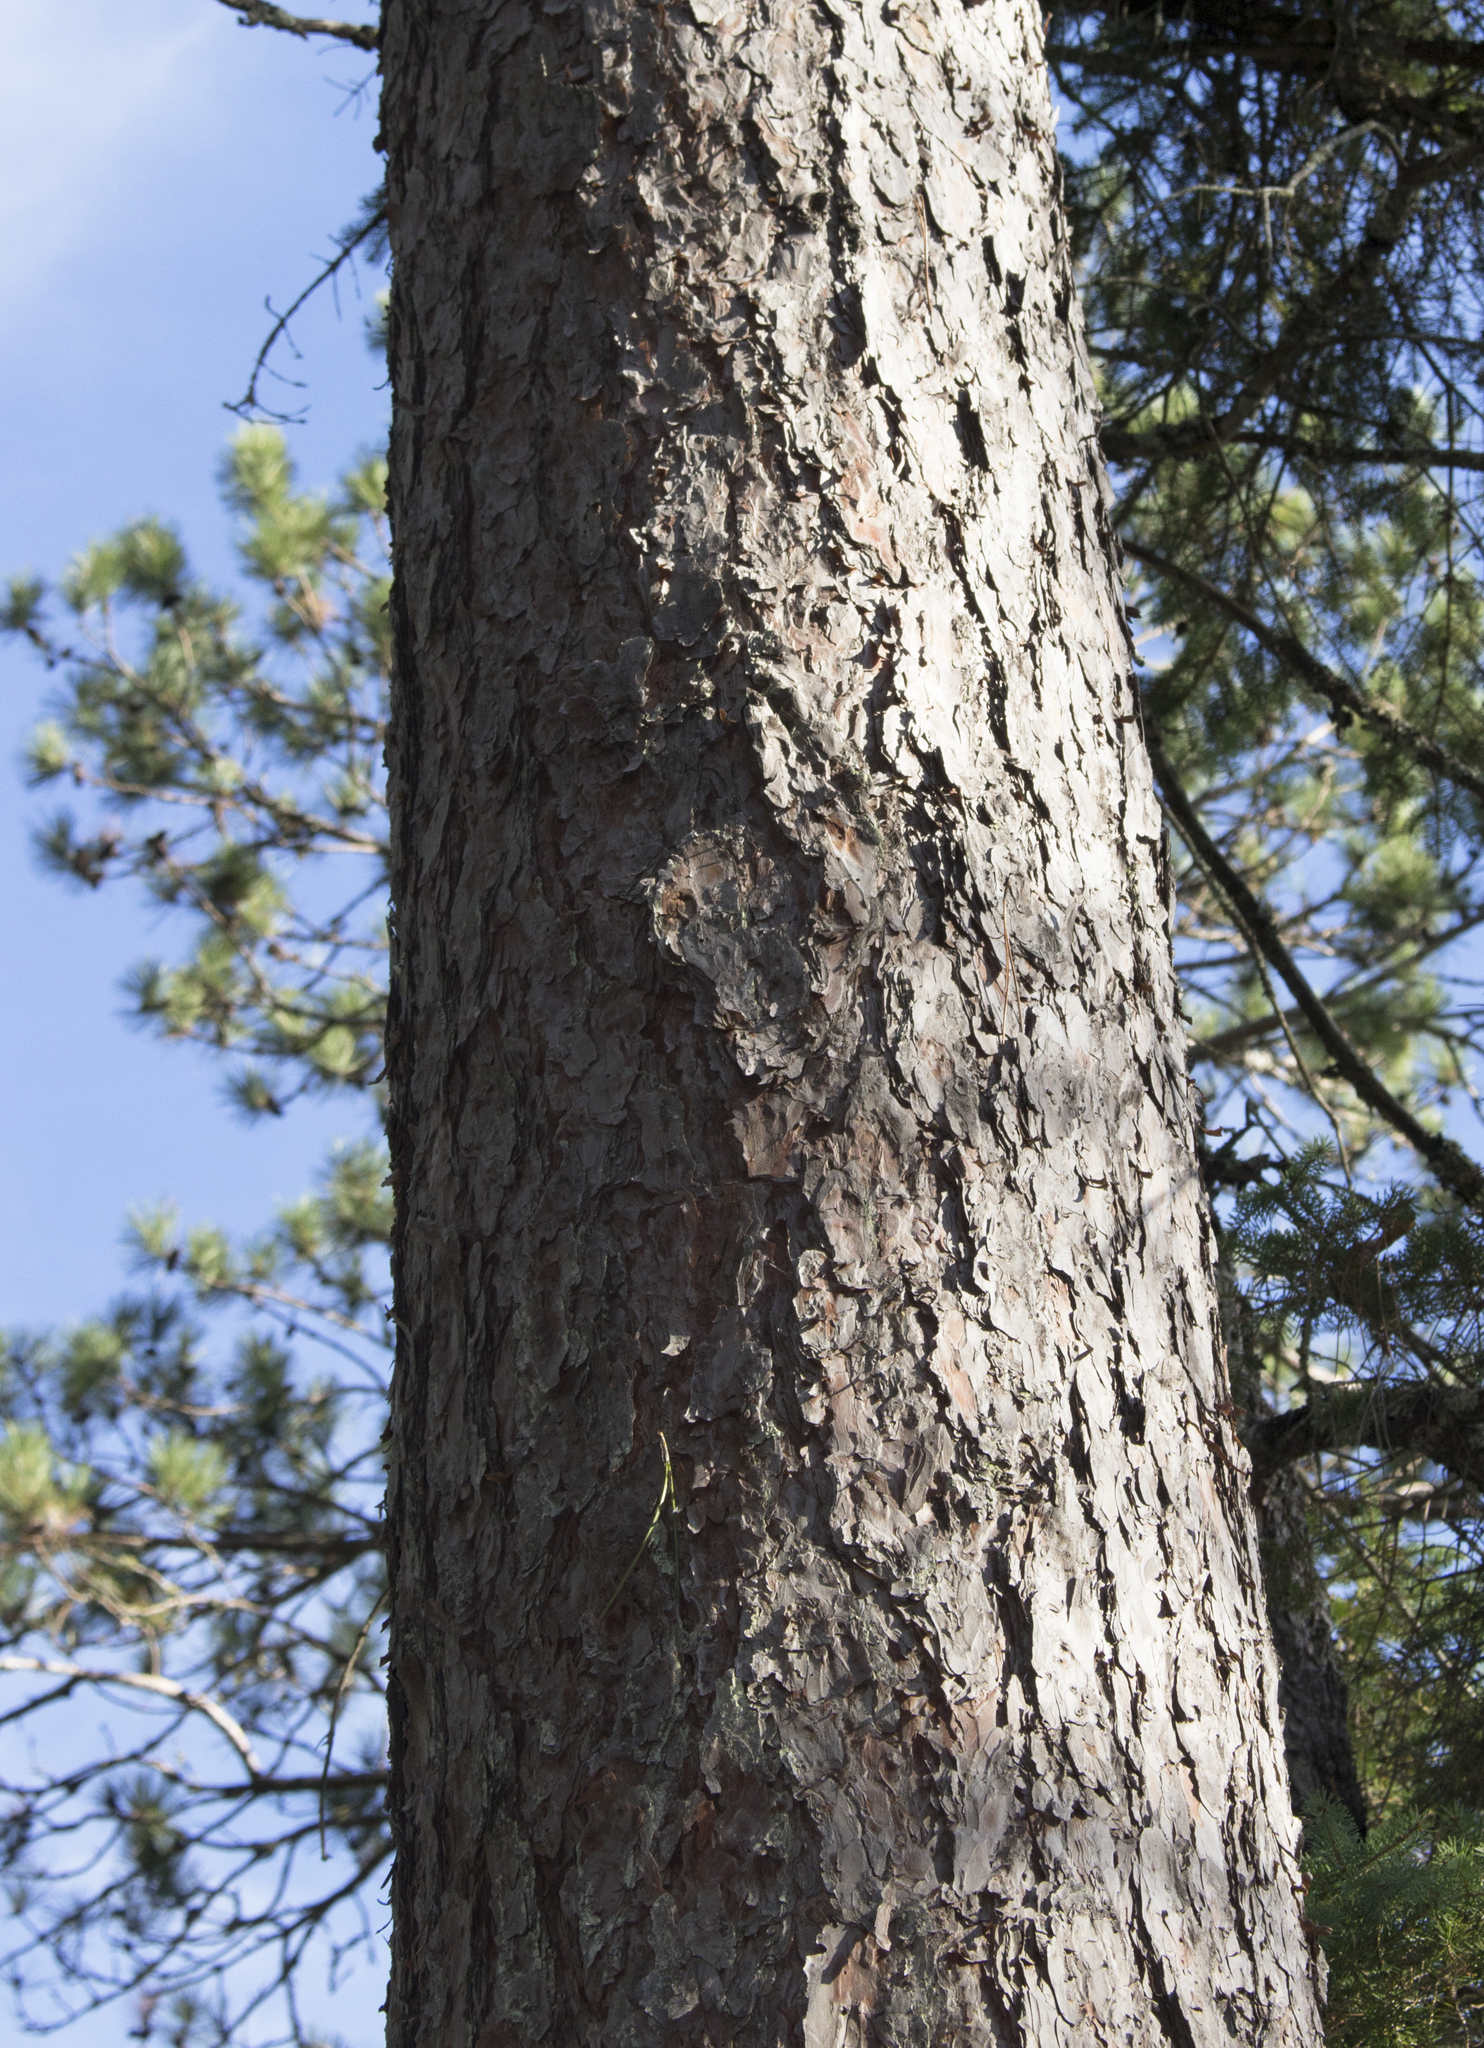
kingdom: Plantae
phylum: Tracheophyta
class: Pinopsida
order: Pinales
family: Pinaceae
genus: Pinus
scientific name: Pinus resinosa
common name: Norway pine
